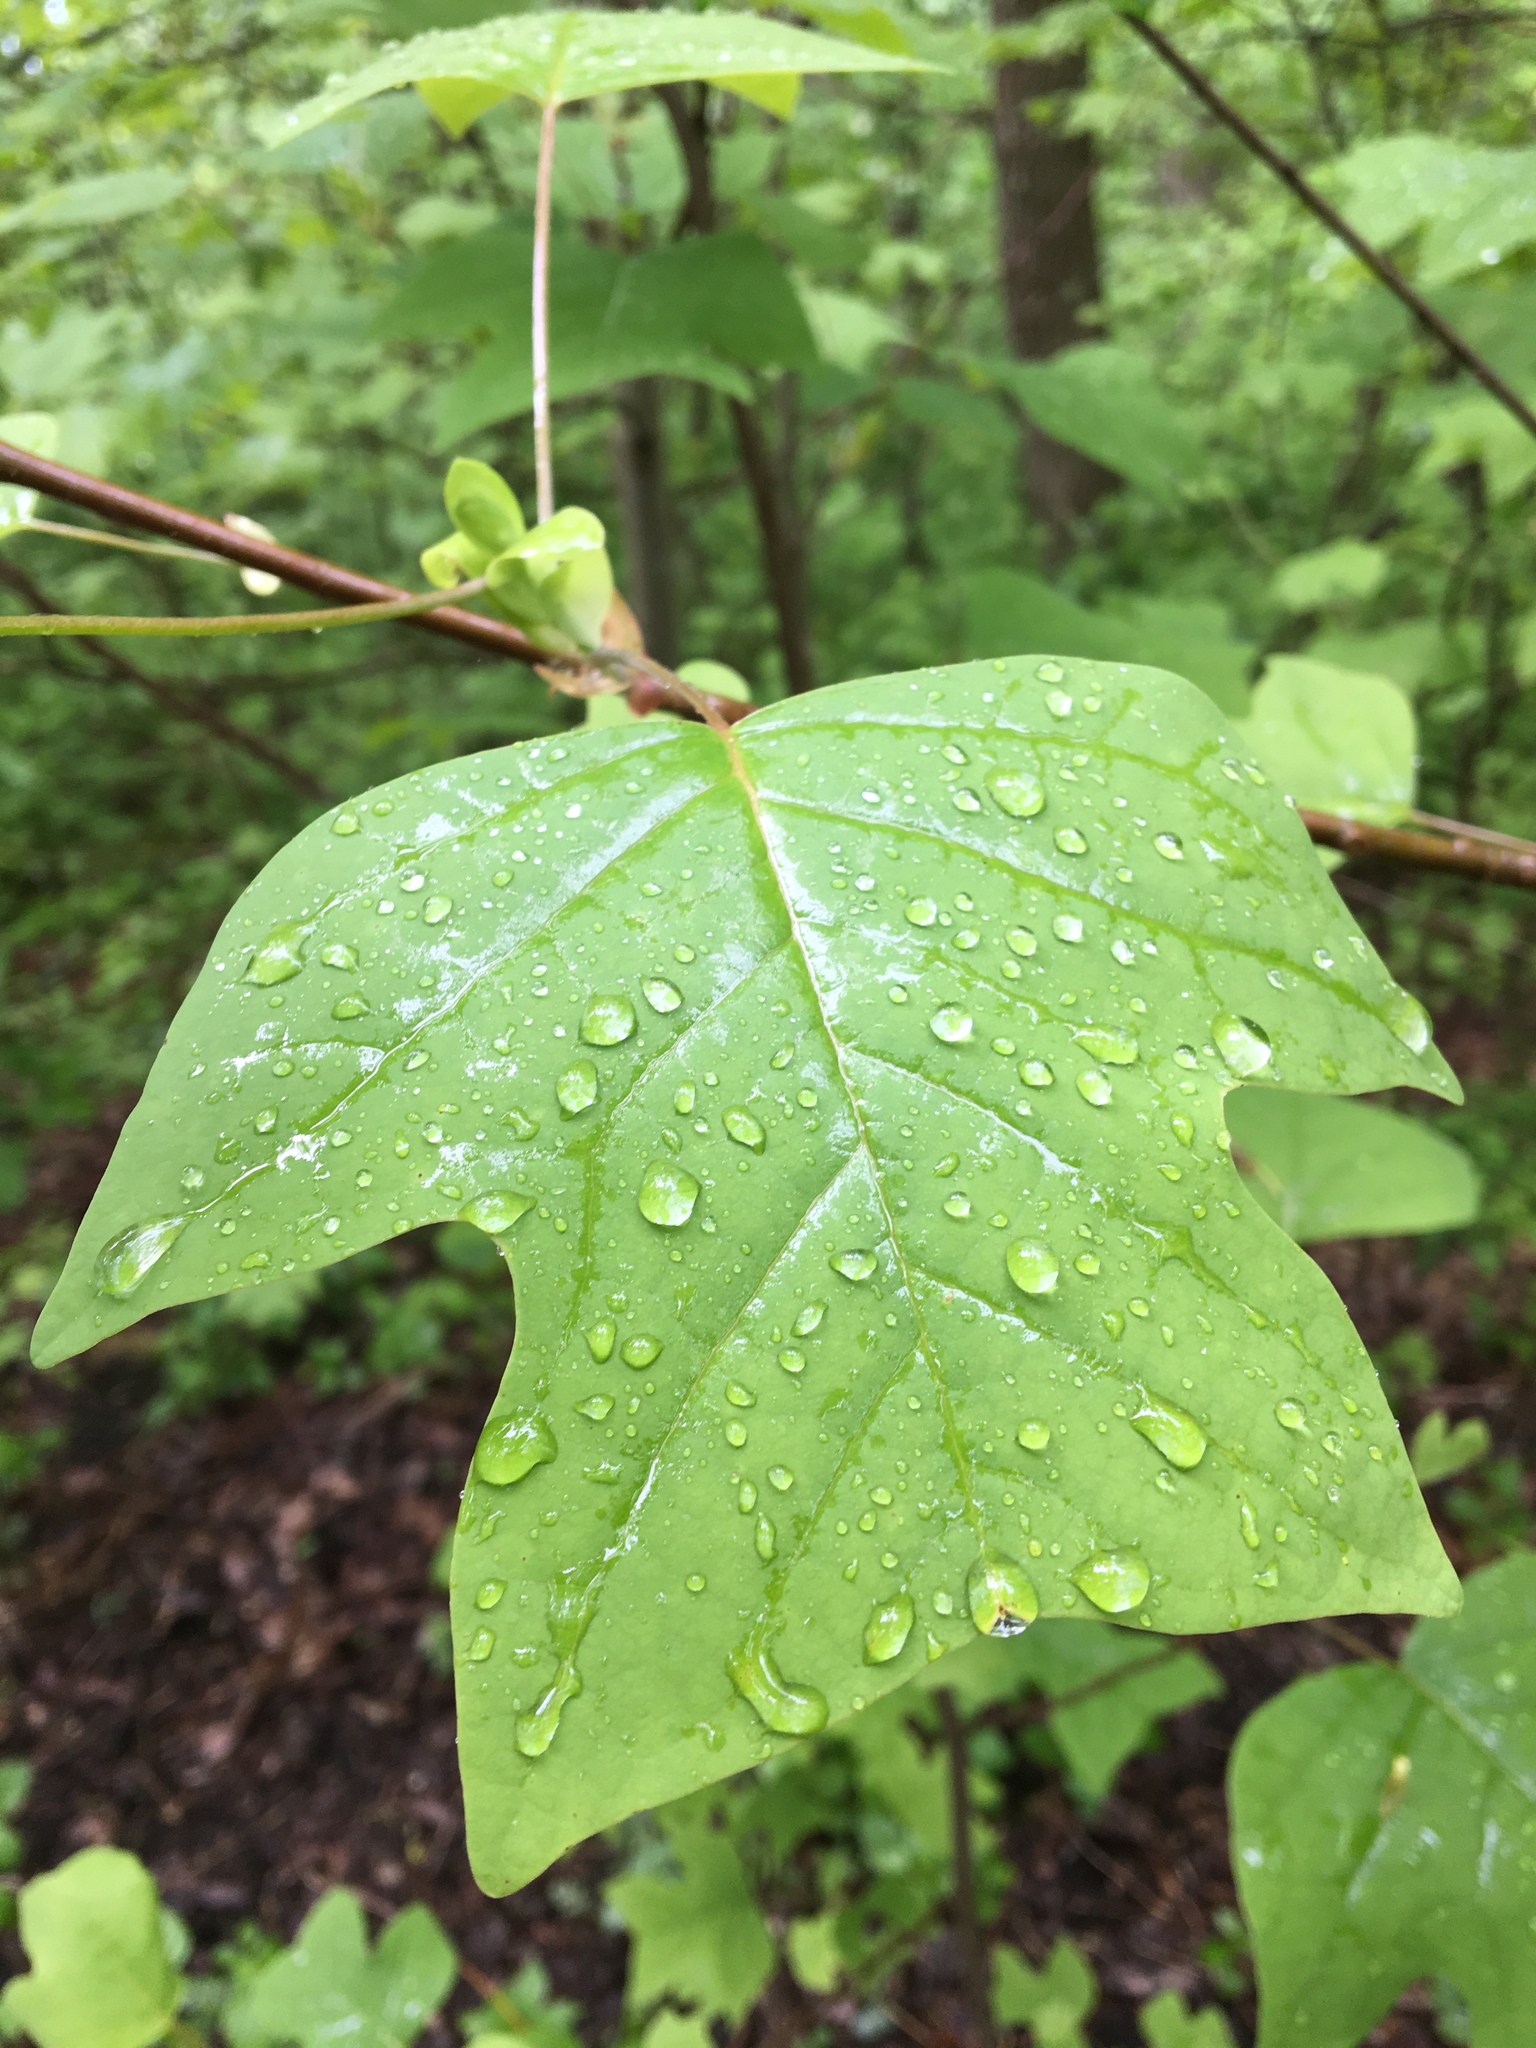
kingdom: Plantae
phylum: Tracheophyta
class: Magnoliopsida
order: Magnoliales
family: Magnoliaceae
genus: Liriodendron
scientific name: Liriodendron tulipifera
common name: Tulip tree
